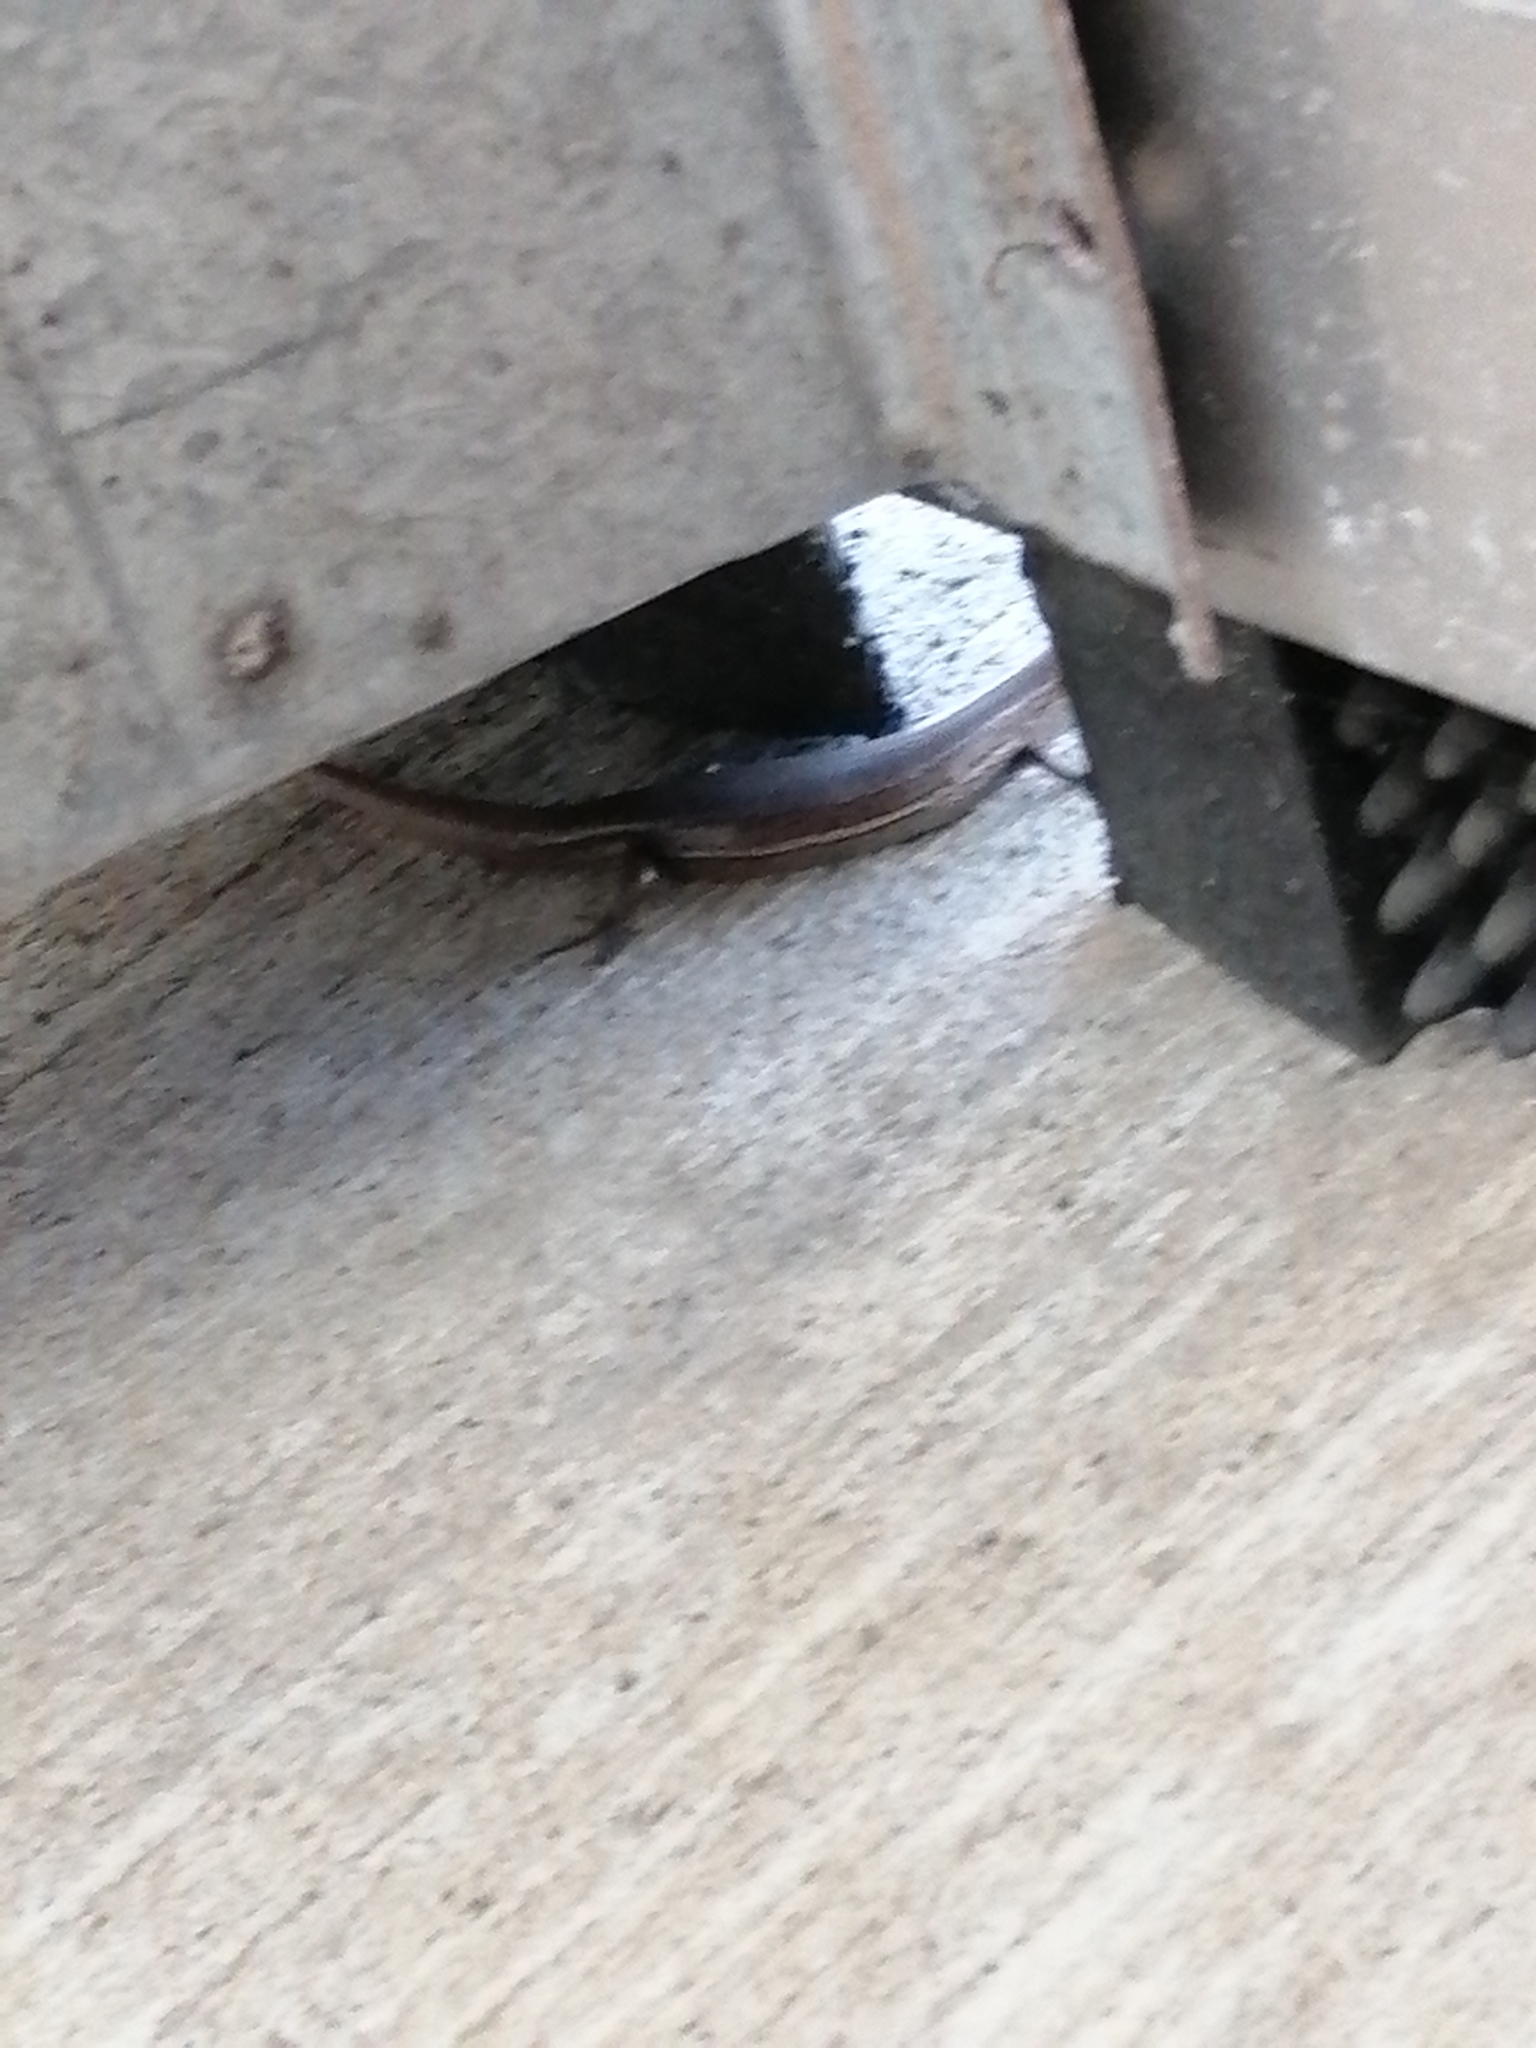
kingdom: Animalia
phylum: Chordata
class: Squamata
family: Scincidae
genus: Lampropholis
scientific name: Lampropholis delicata
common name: Plague skink
